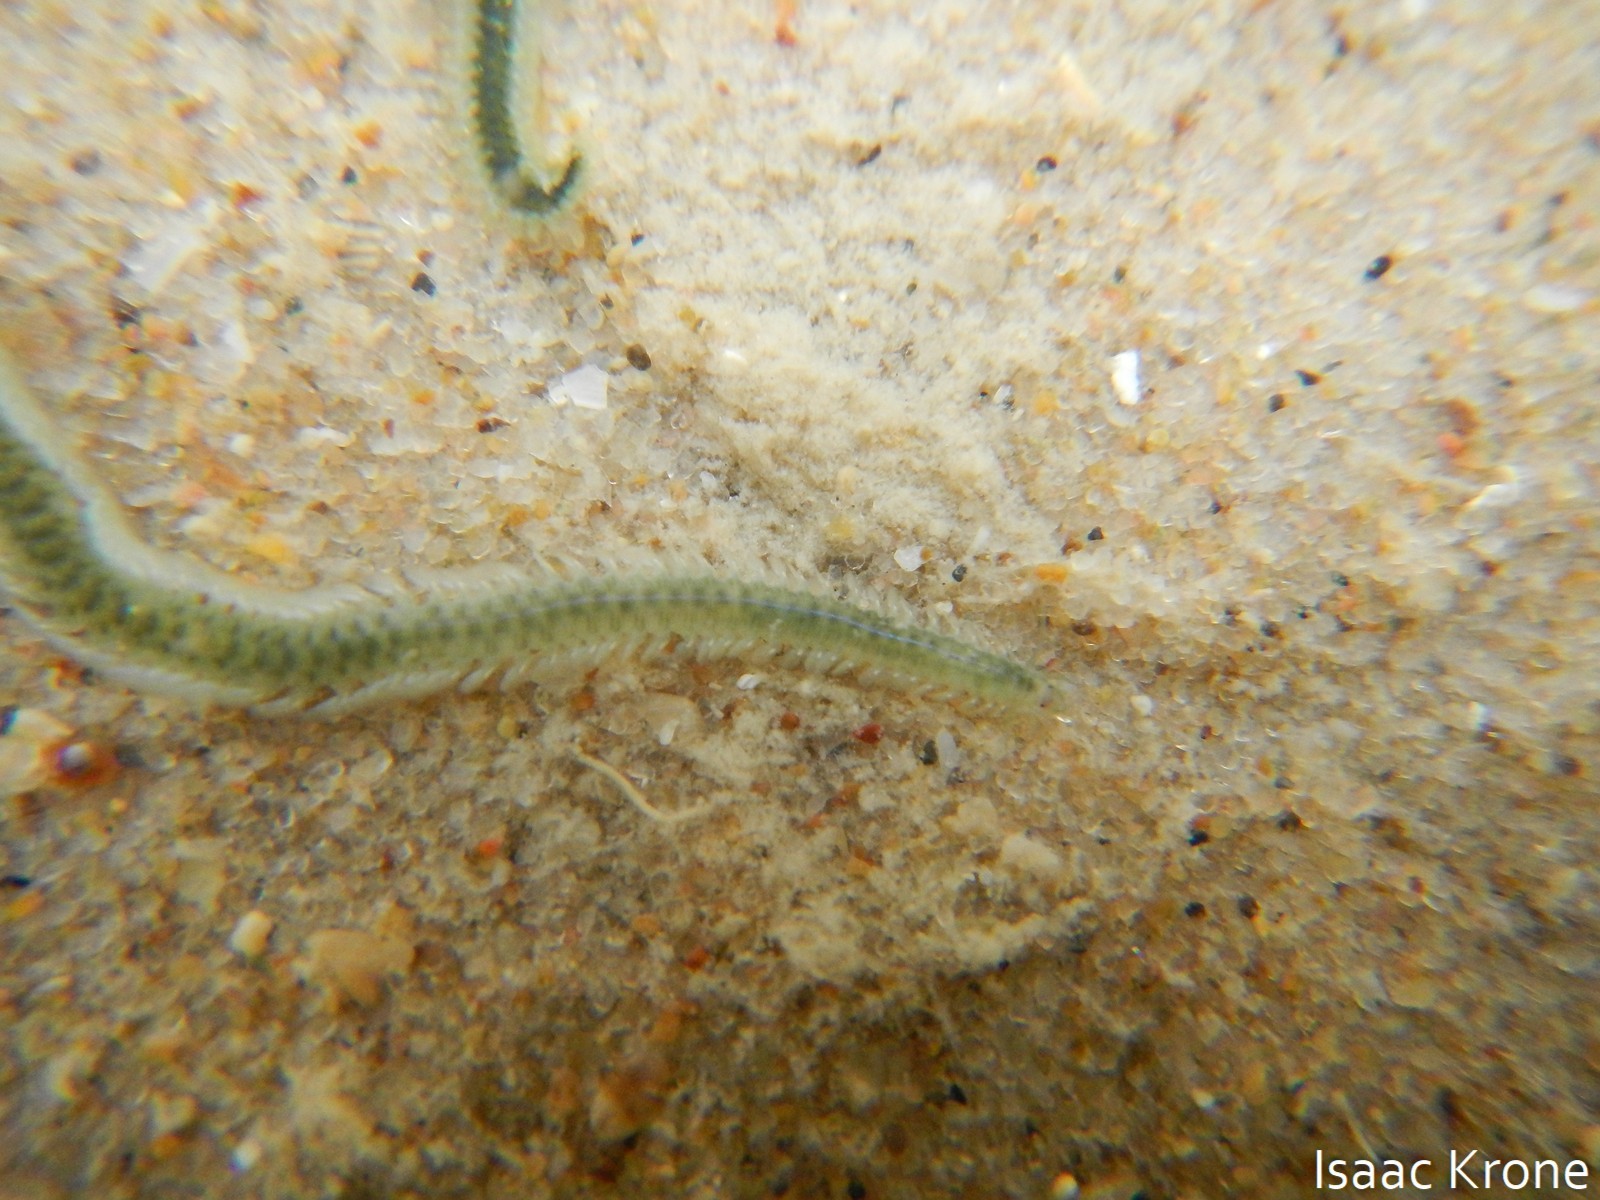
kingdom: Animalia
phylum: Annelida
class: Polychaeta
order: Phyllodocida
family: Phyllodocidae
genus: Phyllodoce
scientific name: Phyllodoce tuberculosa
